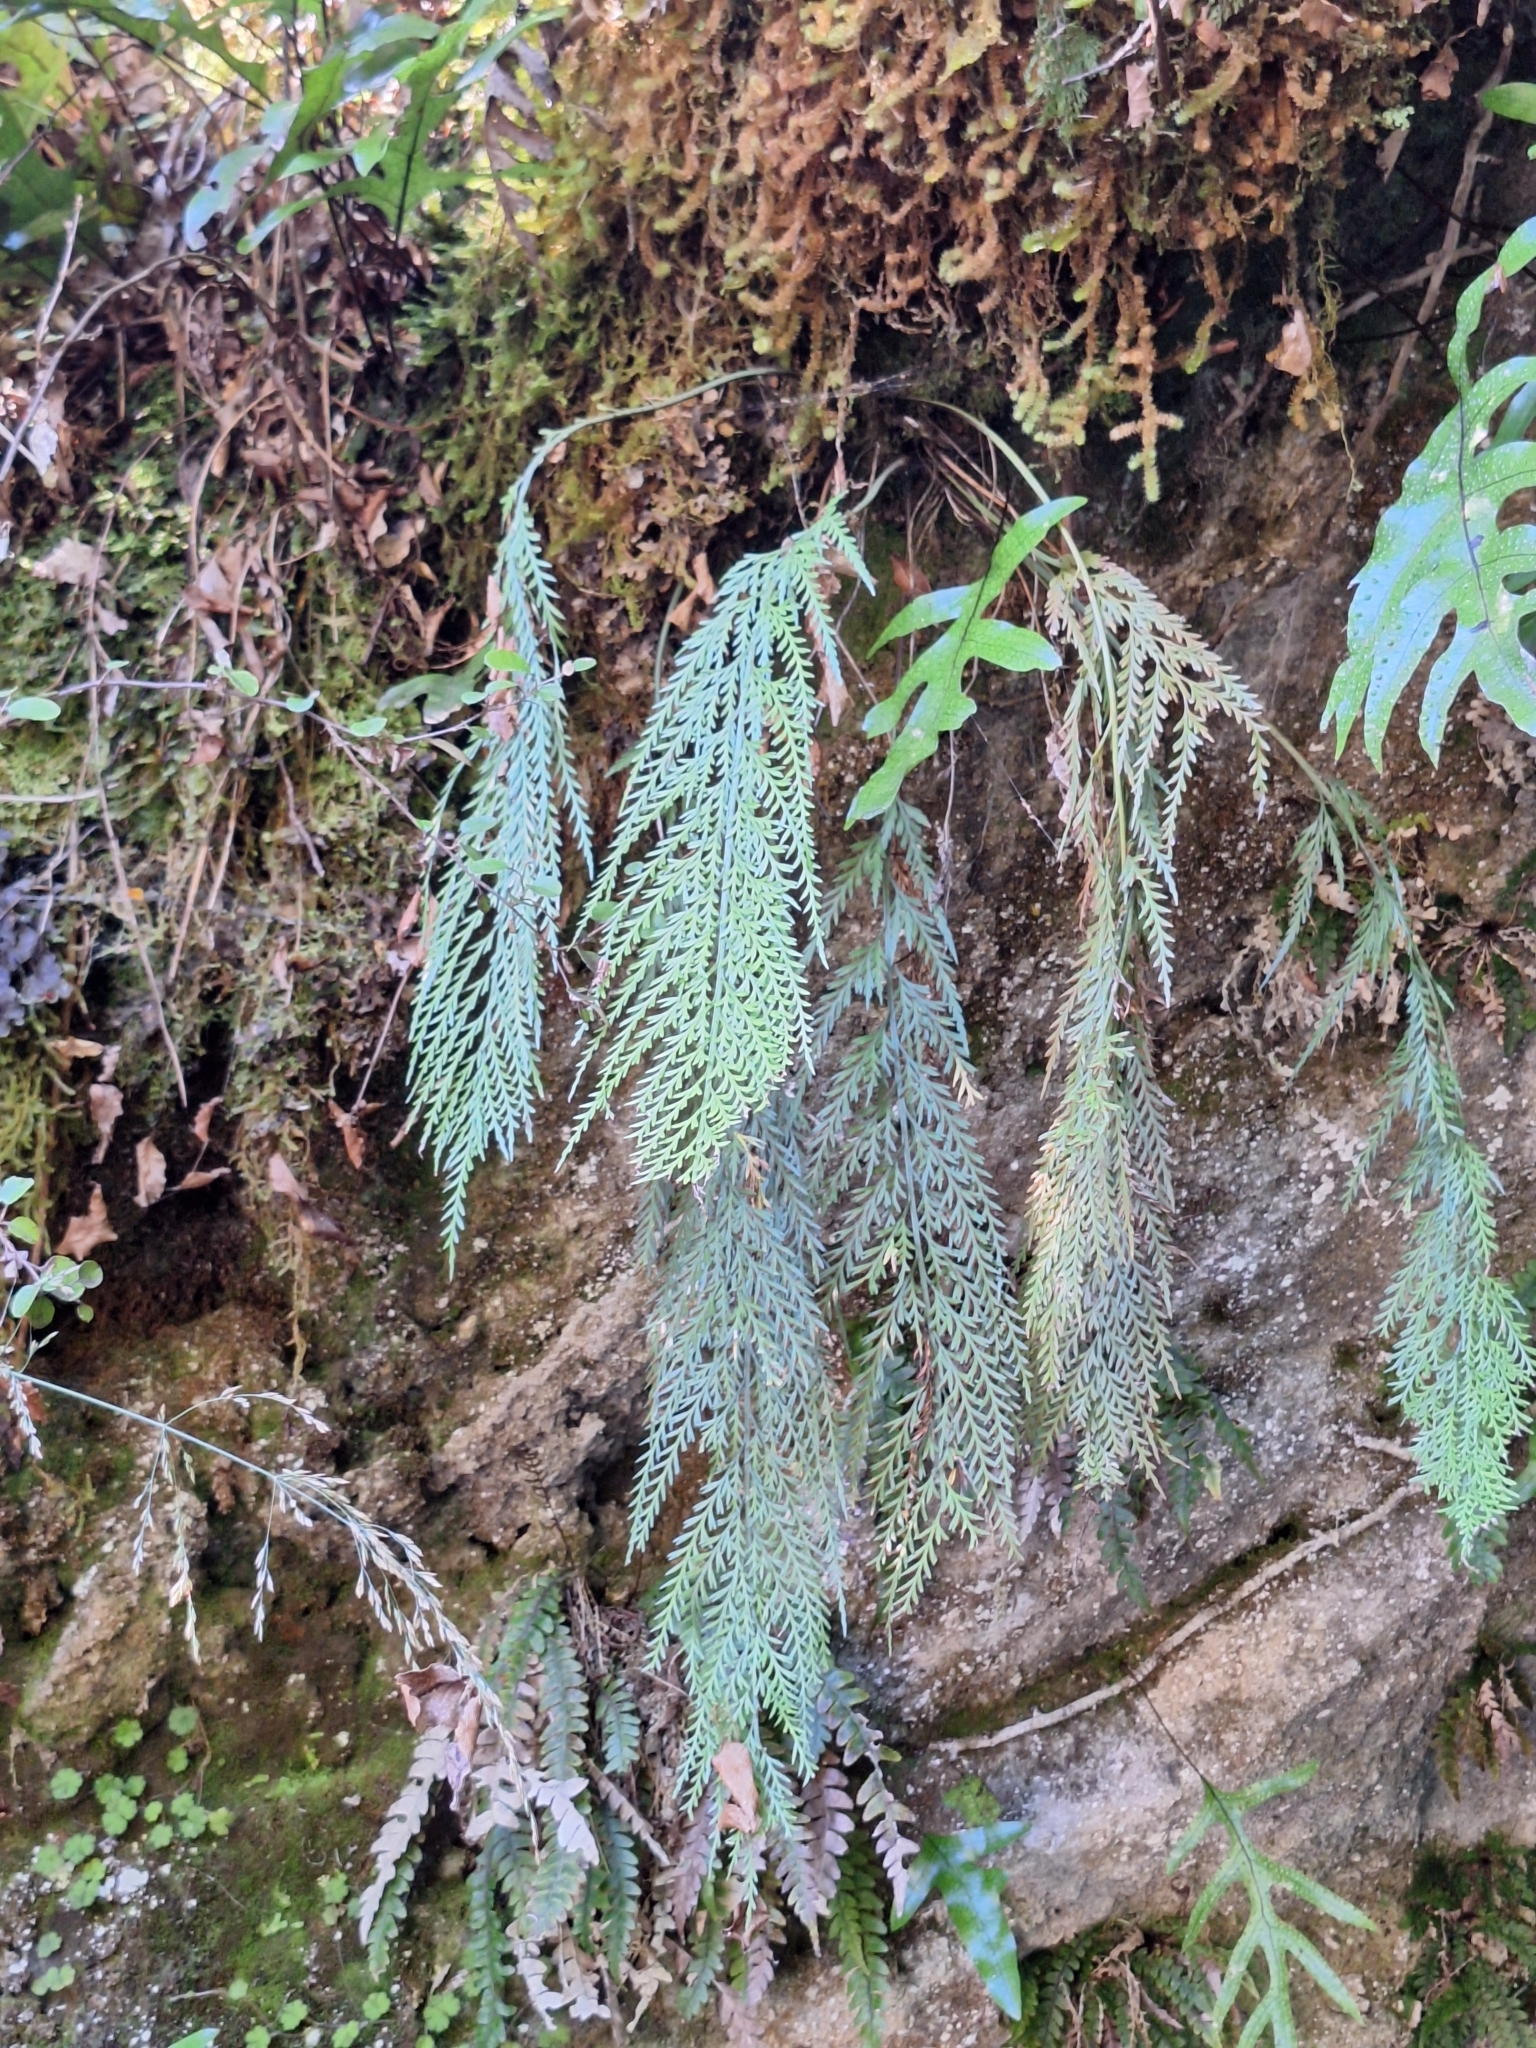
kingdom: Plantae
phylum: Tracheophyta
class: Polypodiopsida
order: Polypodiales
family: Aspleniaceae
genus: Asplenium
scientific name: Asplenium flaccidum
